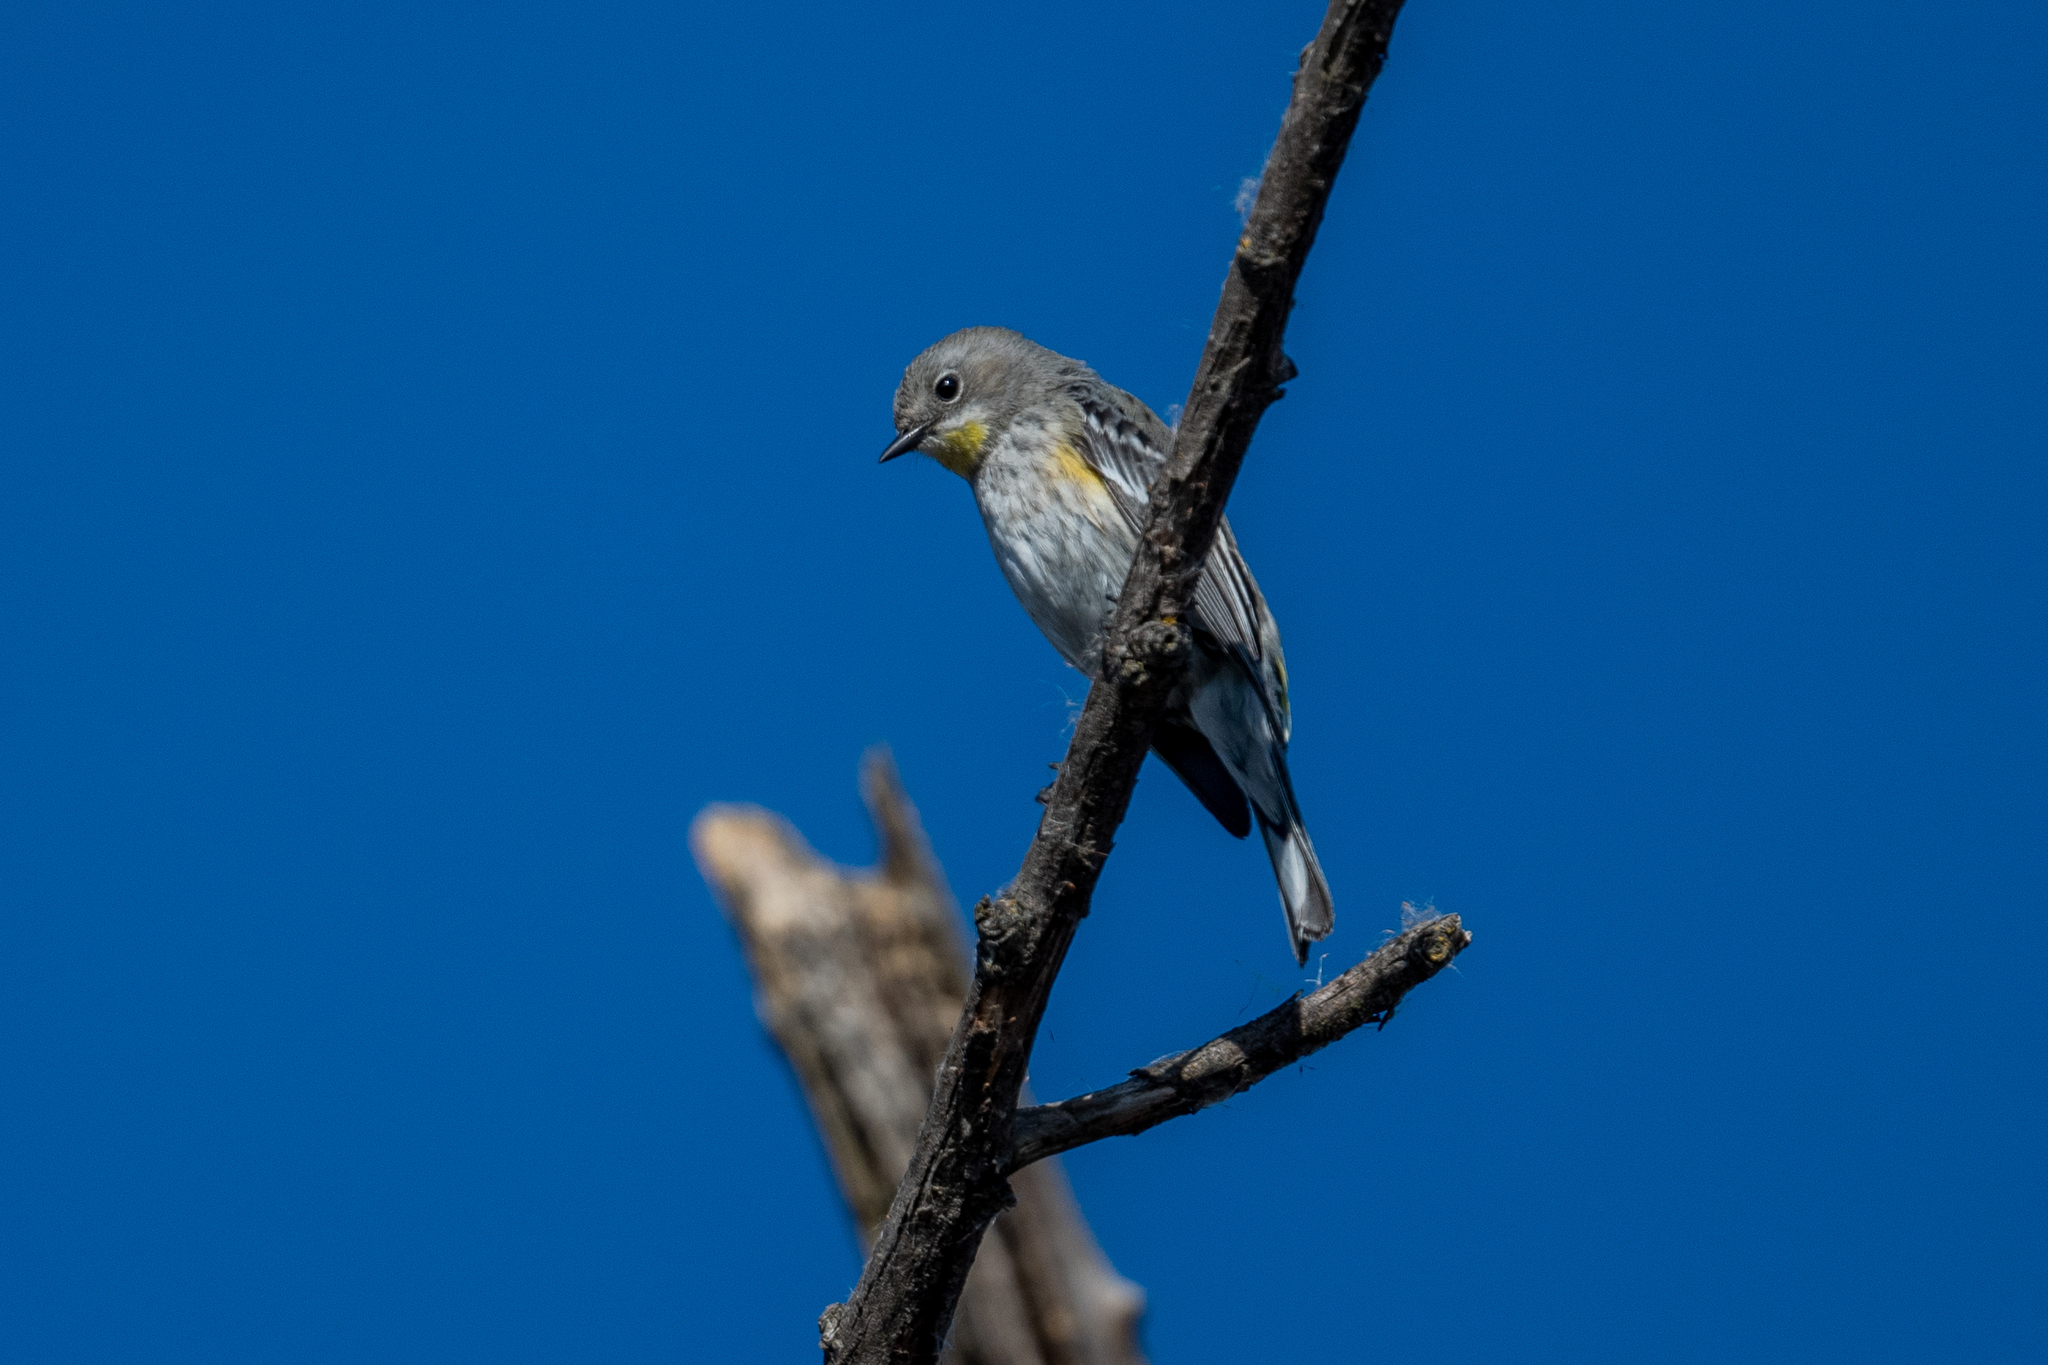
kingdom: Animalia
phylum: Chordata
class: Aves
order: Passeriformes
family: Parulidae
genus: Setophaga
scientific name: Setophaga coronata
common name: Myrtle warbler
